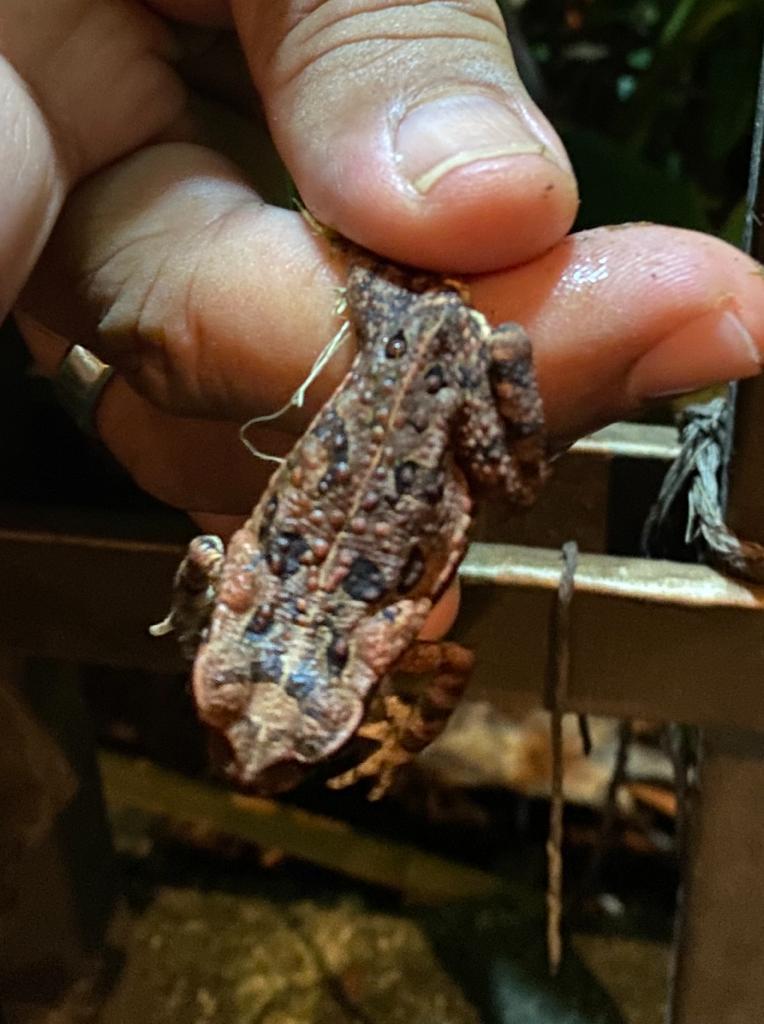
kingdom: Animalia
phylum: Chordata
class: Amphibia
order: Anura
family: Bufonidae
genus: Rhinella
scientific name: Rhinella horribilis
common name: Mesoamerican cane toad
